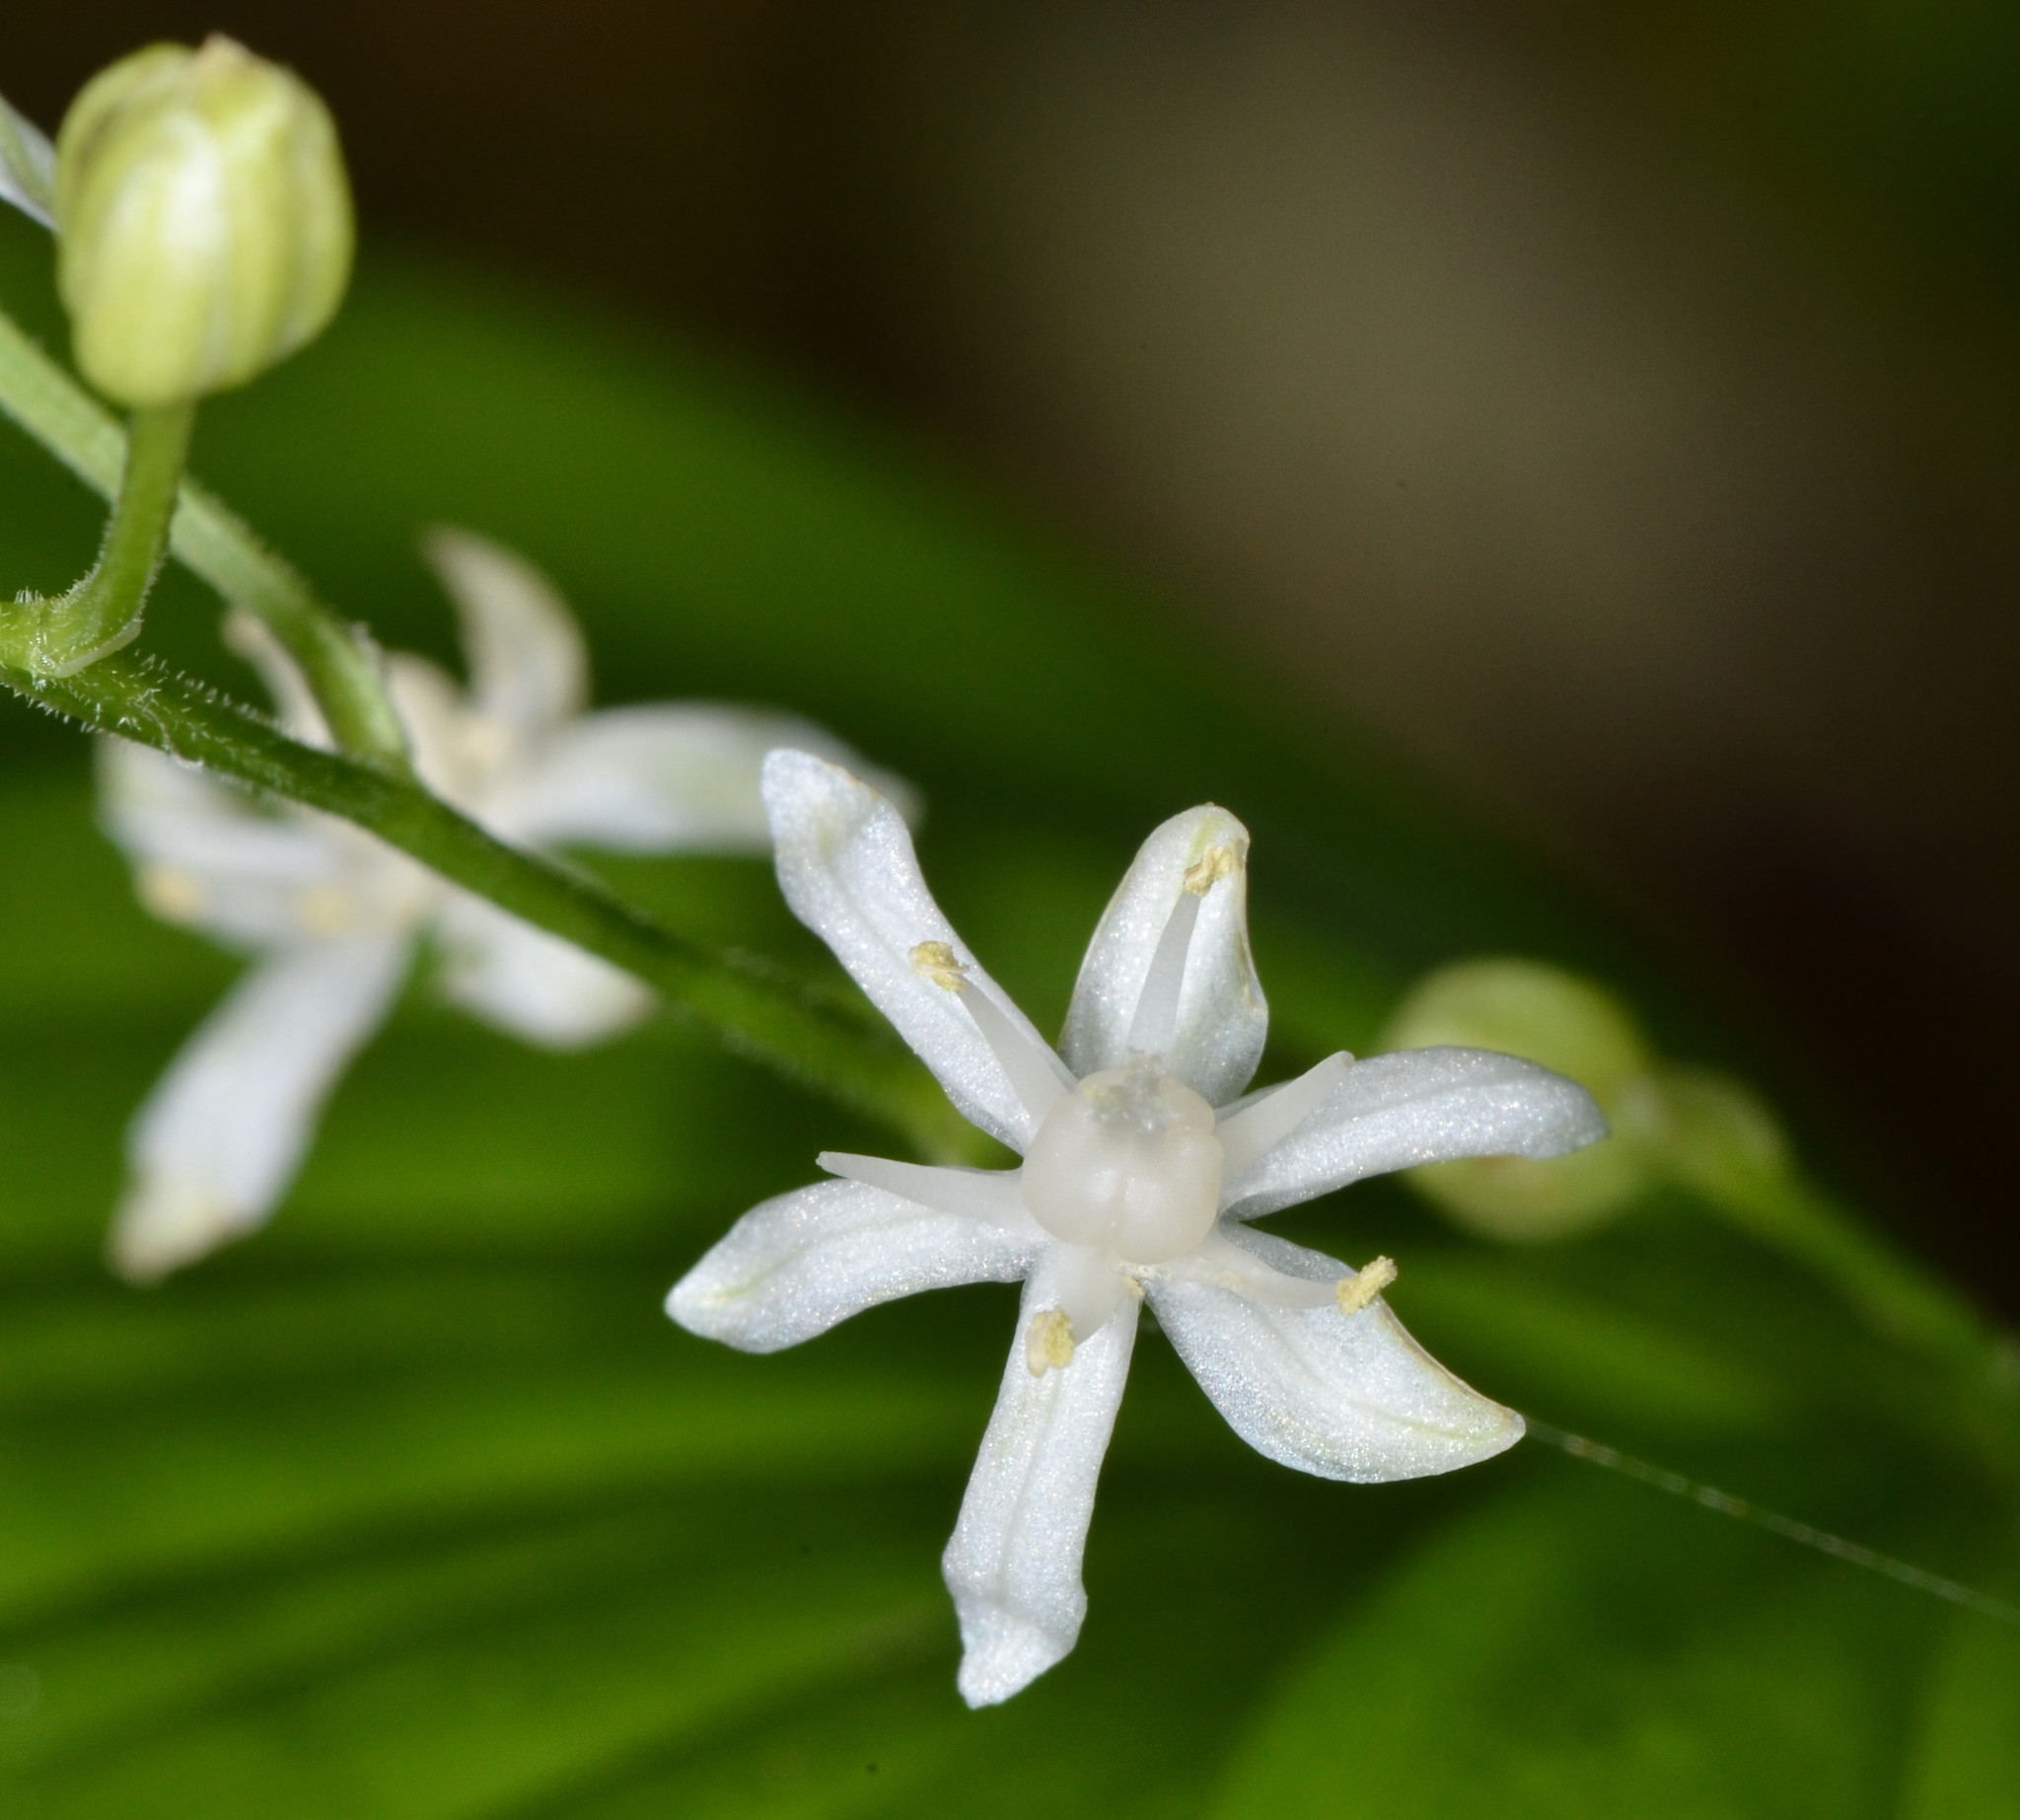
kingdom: Plantae
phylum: Tracheophyta
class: Liliopsida
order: Asparagales
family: Asparagaceae
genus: Maianthemum
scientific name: Maianthemum stellatum
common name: Little false solomon's seal
